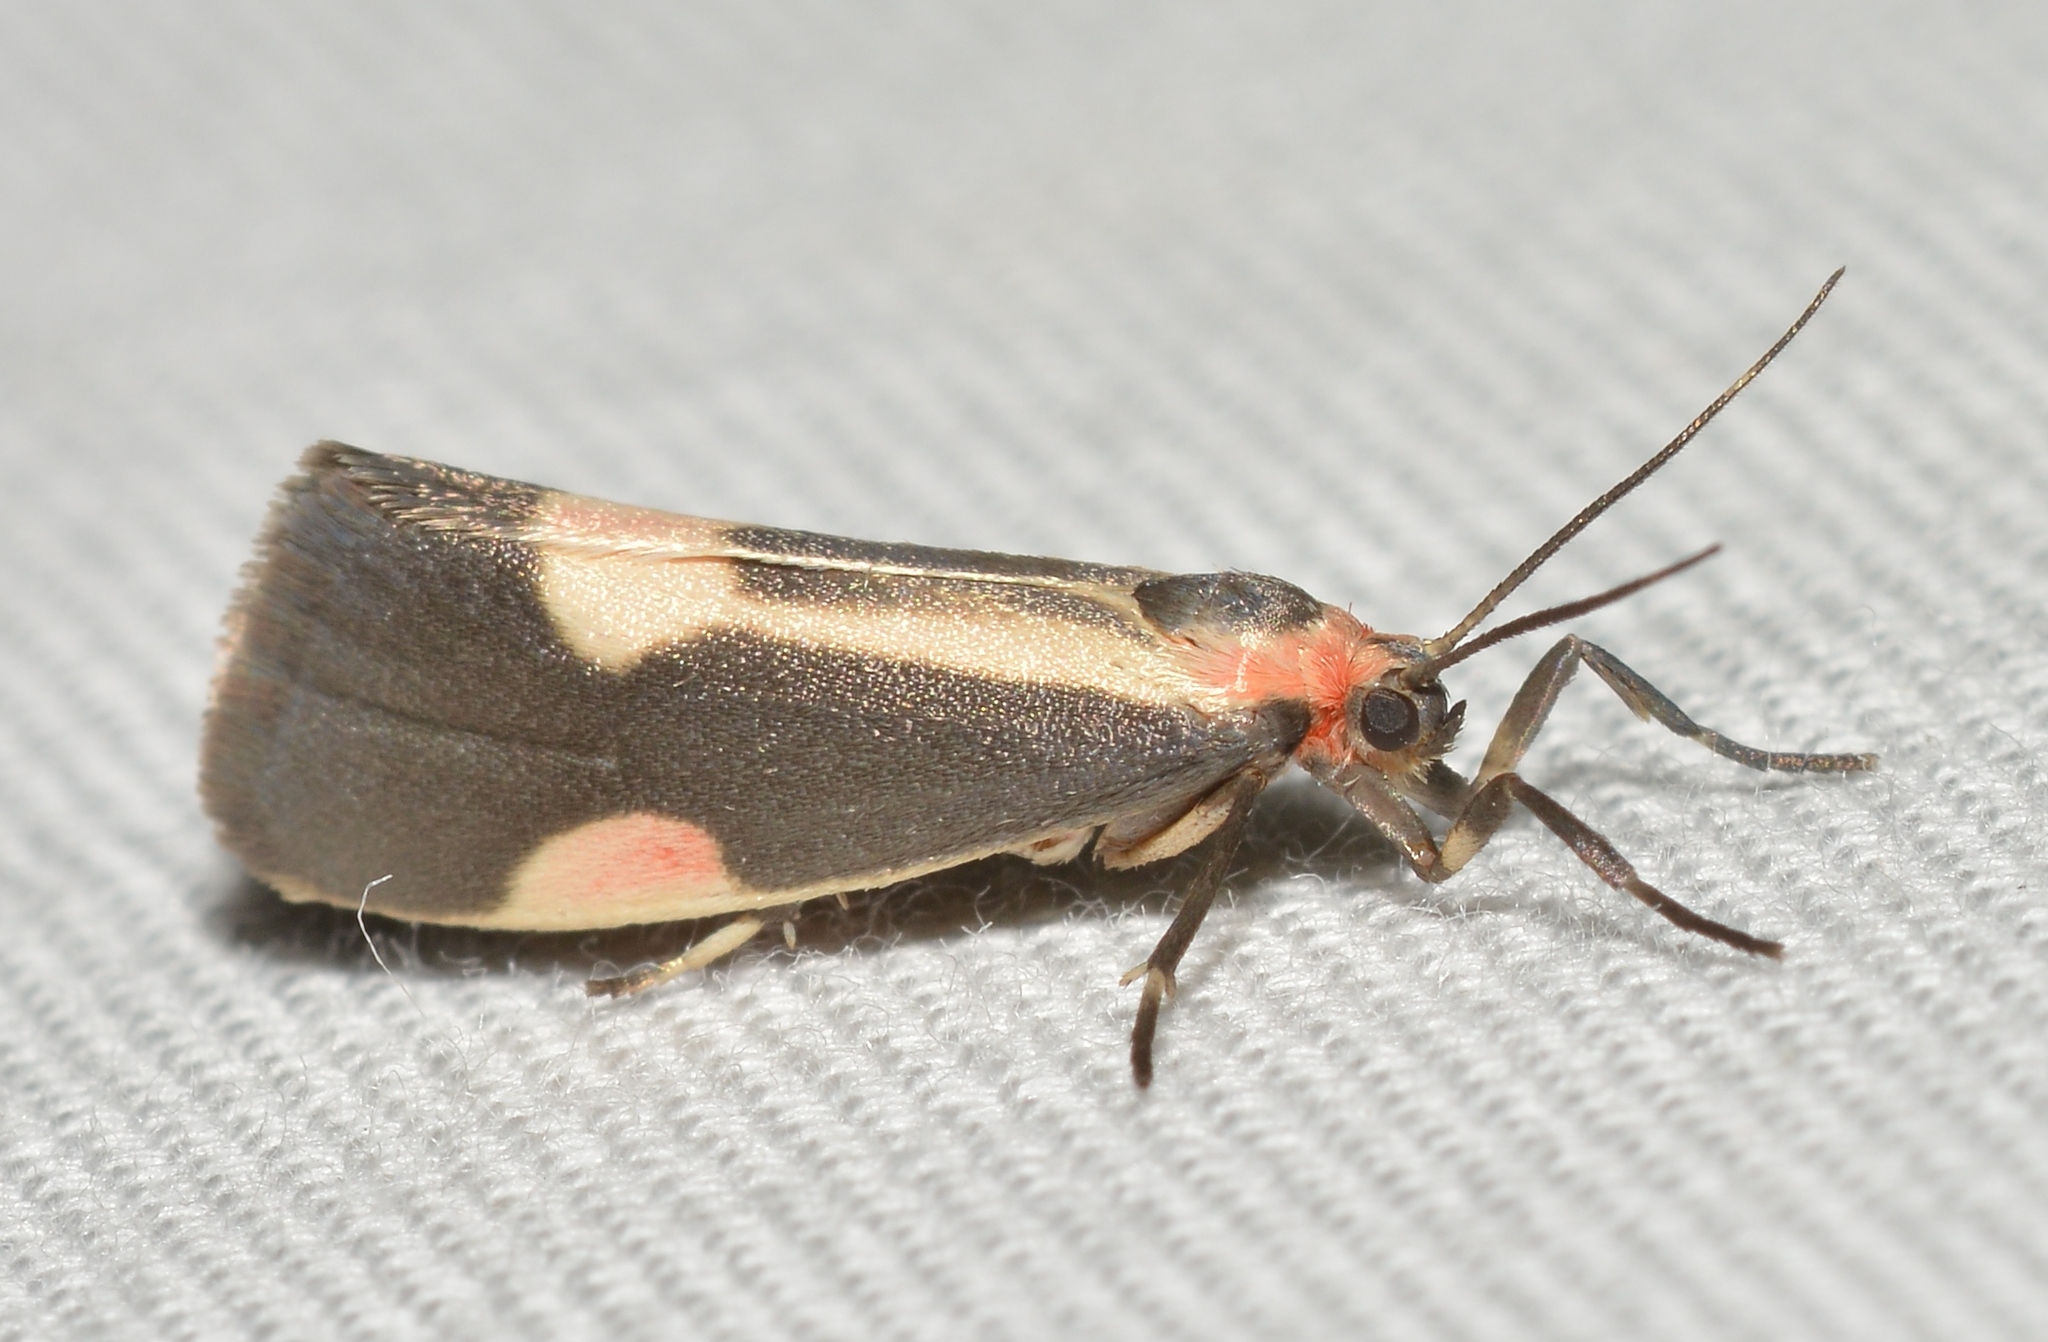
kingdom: Animalia
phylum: Arthropoda
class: Insecta
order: Lepidoptera
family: Erebidae
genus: Cisthene
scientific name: Cisthene packardii
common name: Packard's lichen moth
